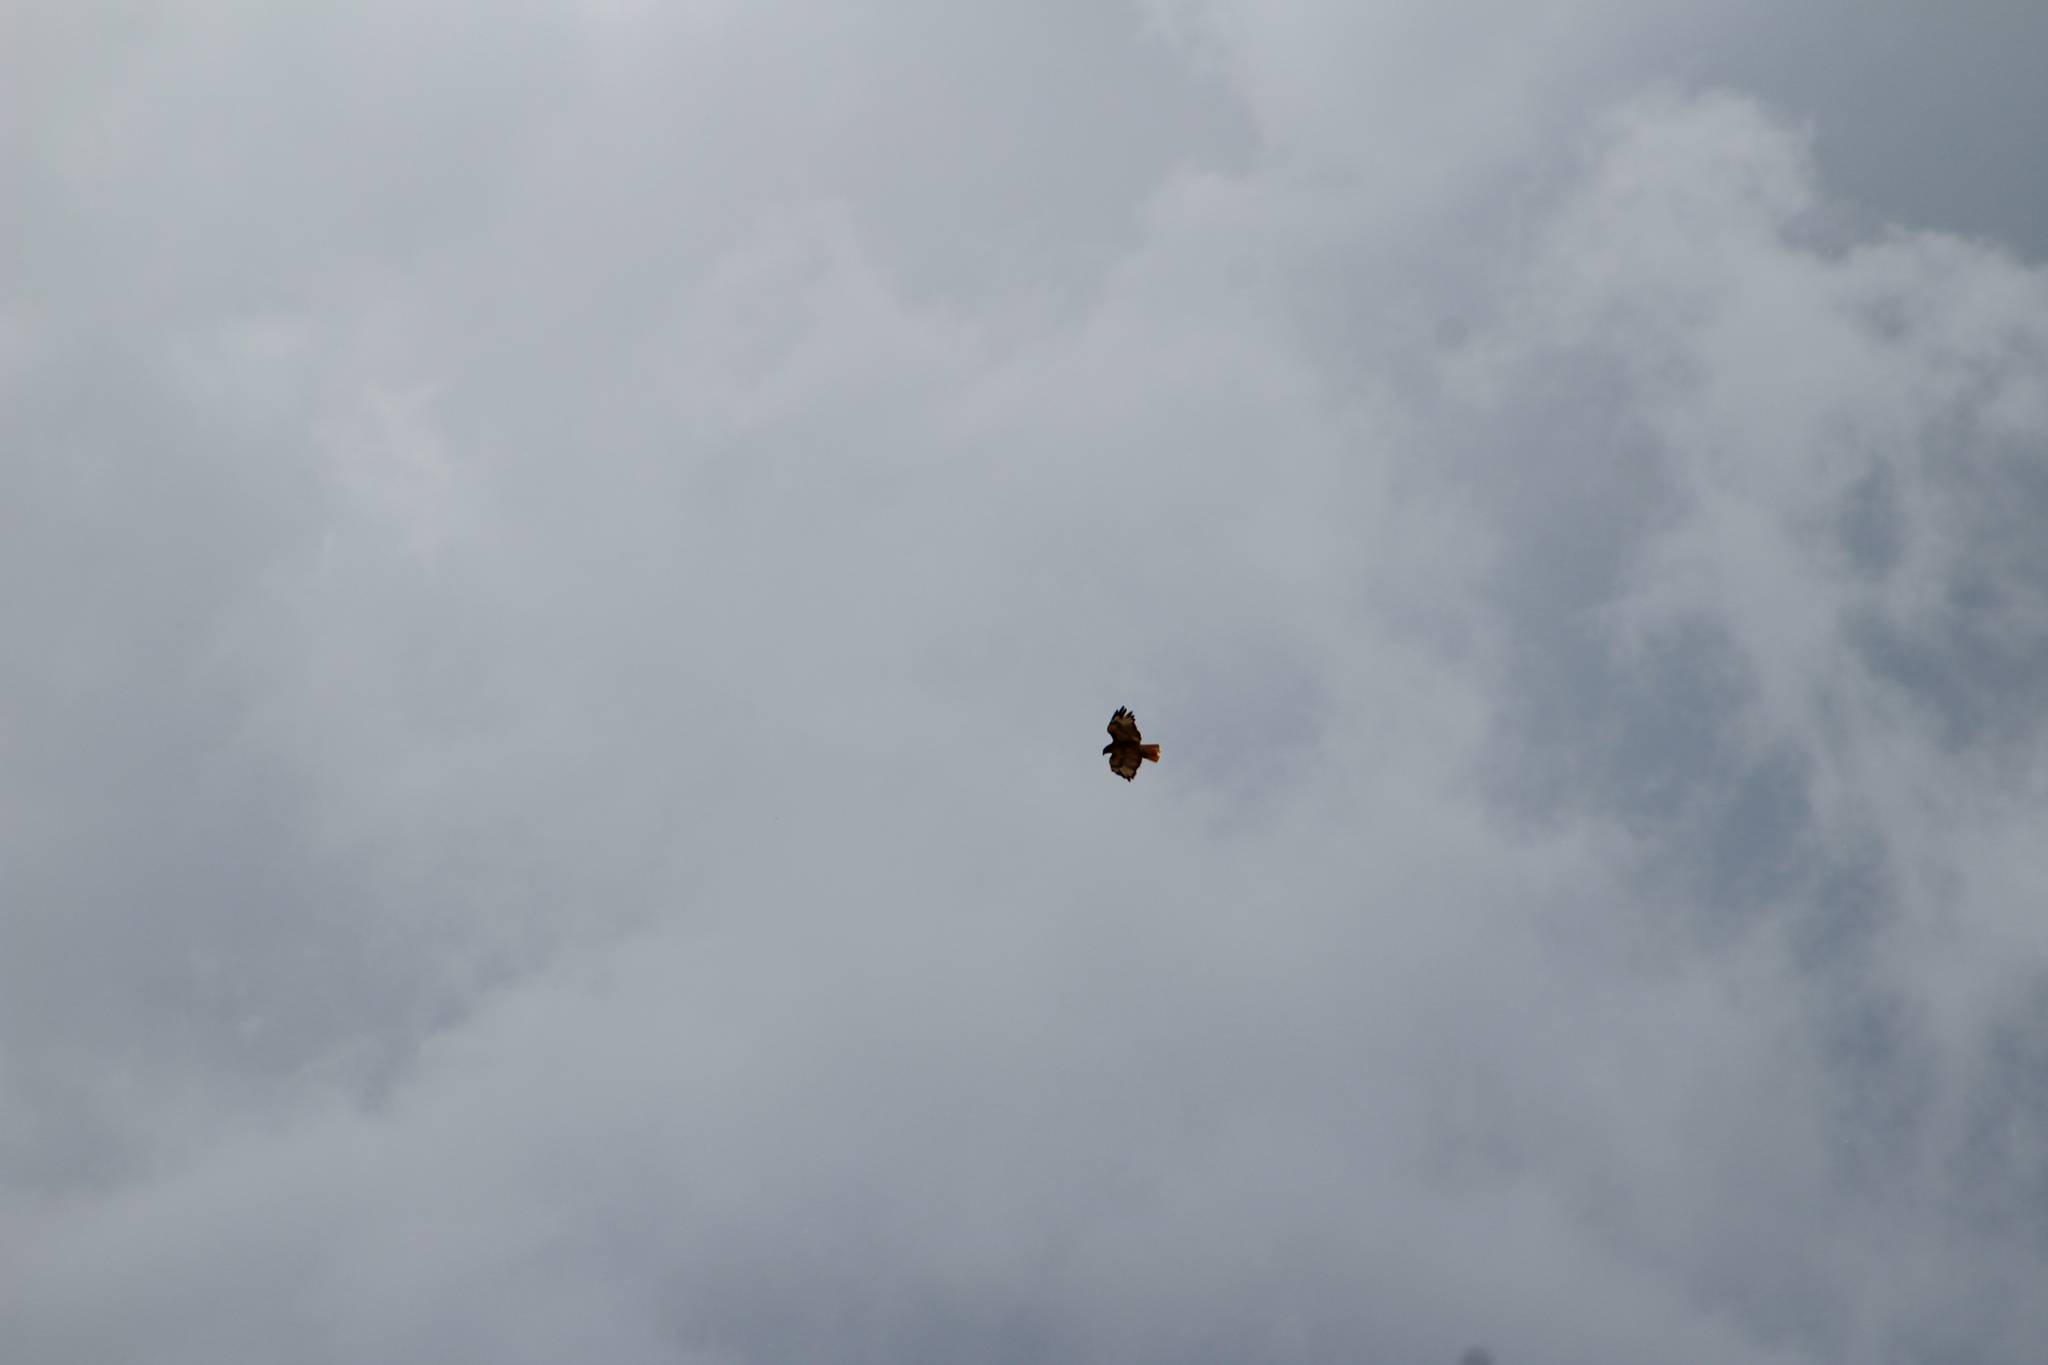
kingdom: Animalia
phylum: Chordata
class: Aves
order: Accipitriformes
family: Accipitridae
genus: Buteo
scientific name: Buteo jamaicensis
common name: Red-tailed hawk
